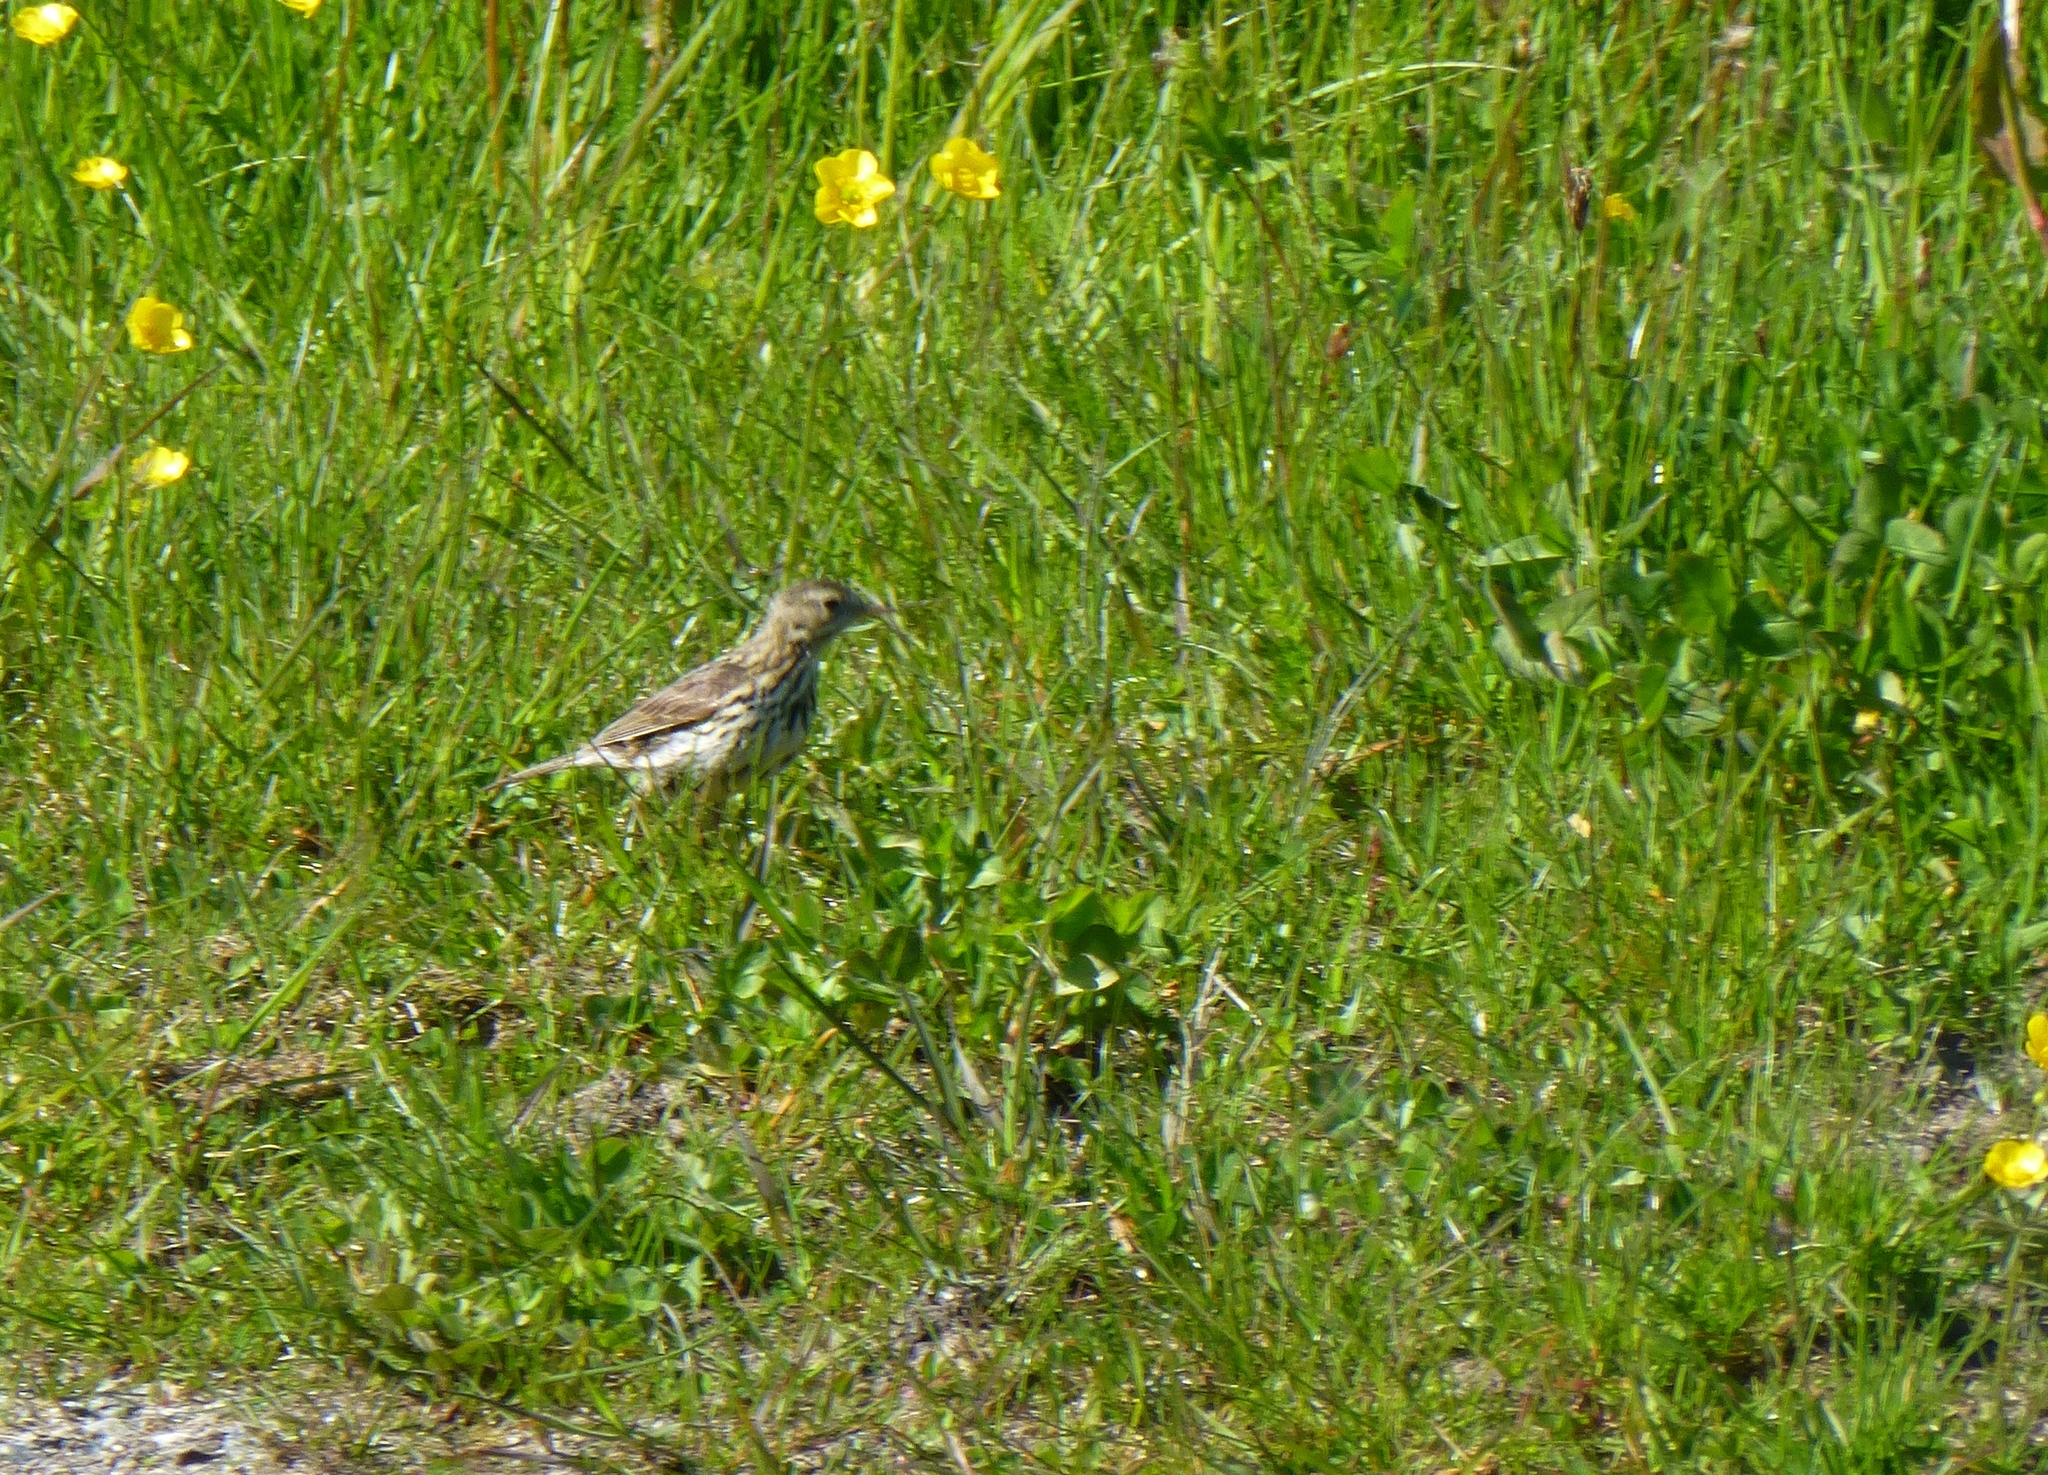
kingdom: Animalia
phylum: Chordata
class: Aves
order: Passeriformes
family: Motacillidae
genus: Anthus
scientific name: Anthus pratensis
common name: Meadow pipit
